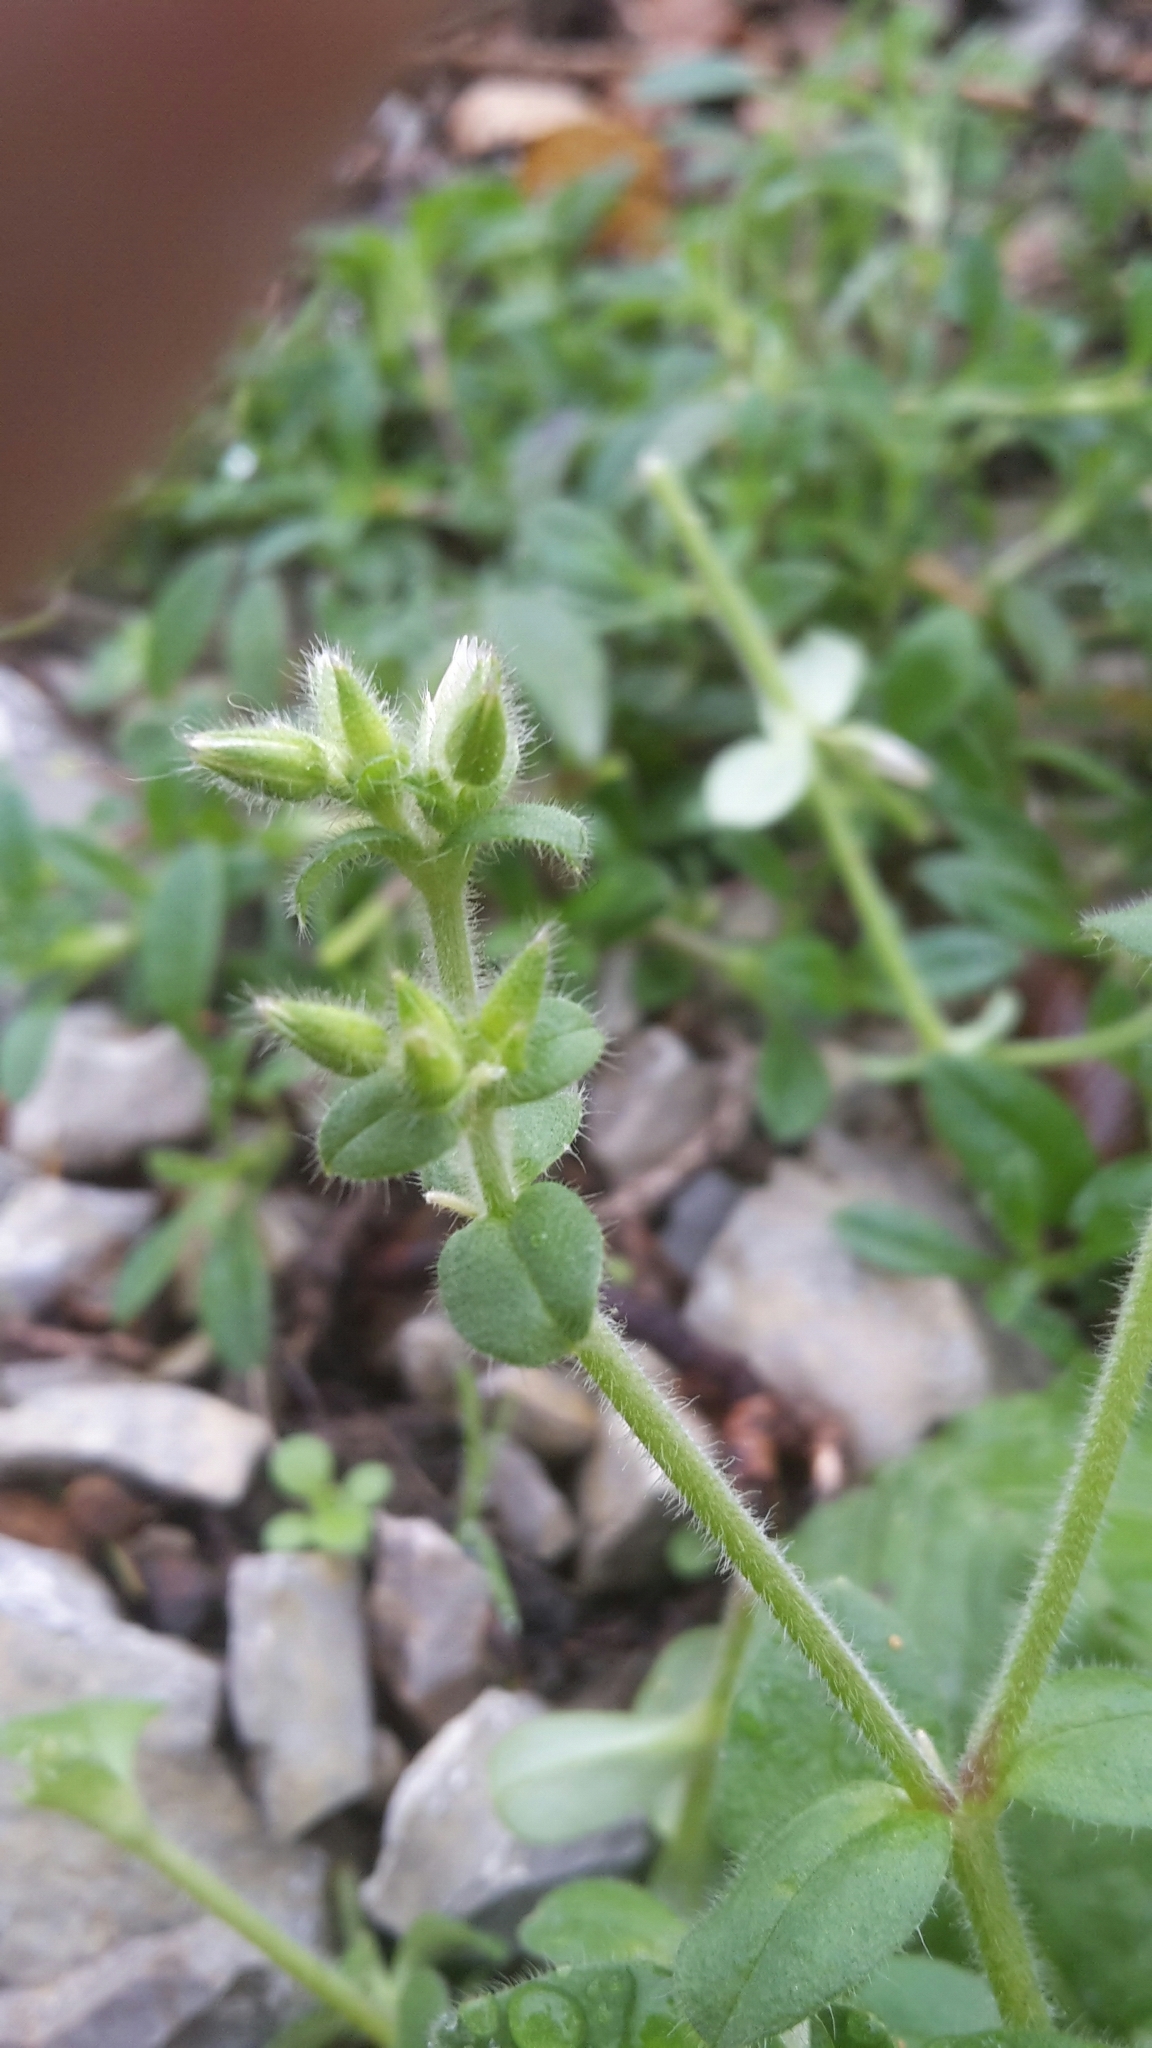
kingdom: Plantae
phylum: Tracheophyta
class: Magnoliopsida
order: Caryophyllales
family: Caryophyllaceae
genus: Cerastium
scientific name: Cerastium glomeratum
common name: Sticky chickweed
